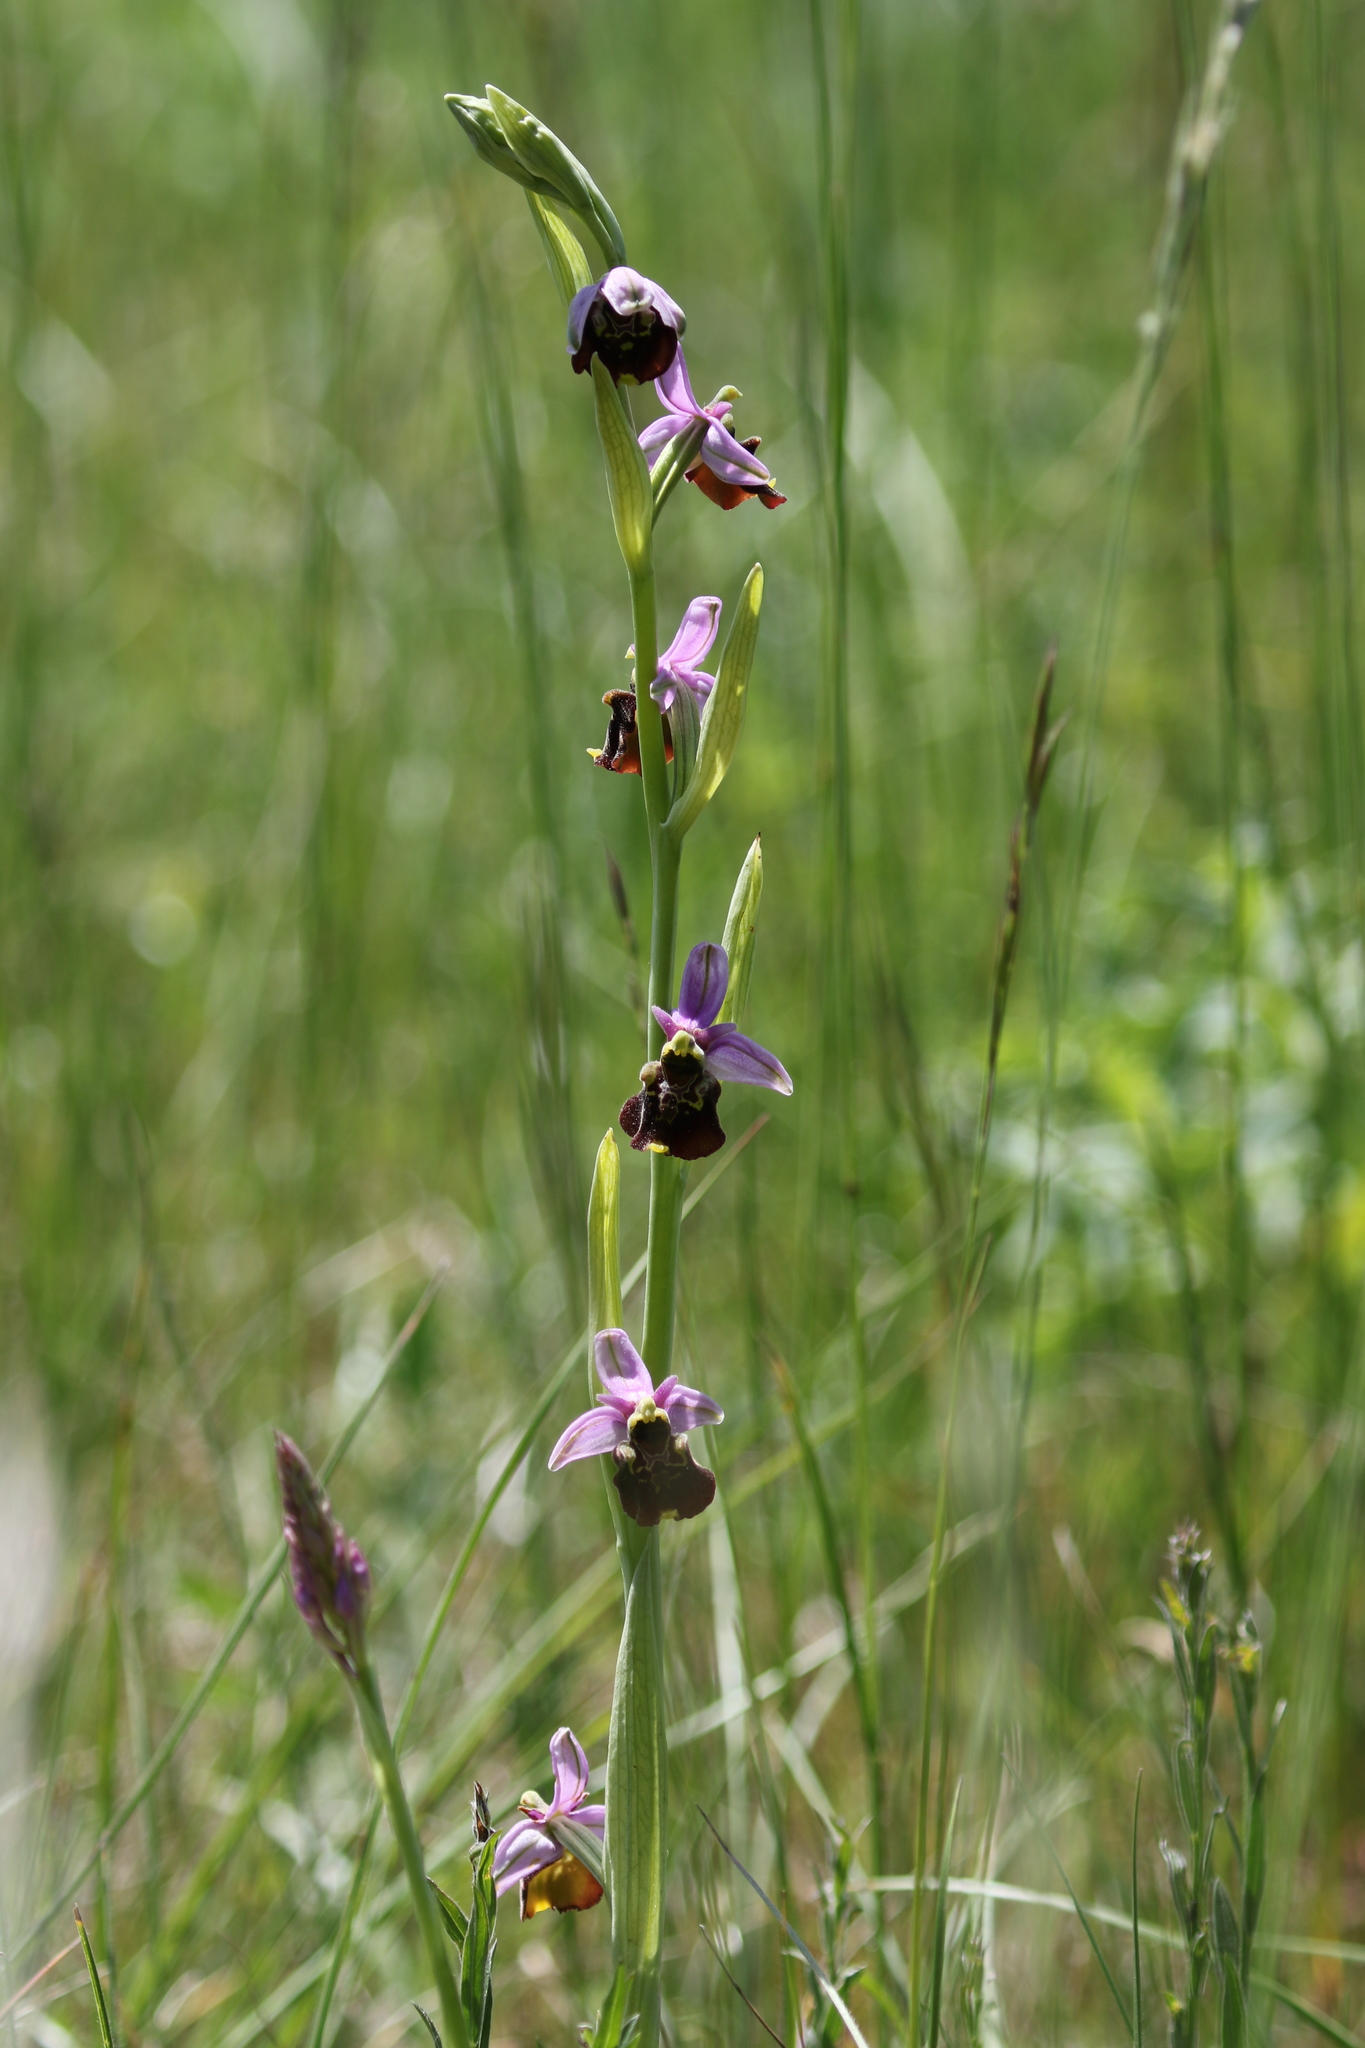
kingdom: Plantae
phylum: Tracheophyta
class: Liliopsida
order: Asparagales
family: Orchidaceae
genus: Ophrys
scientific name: Ophrys holosericea
